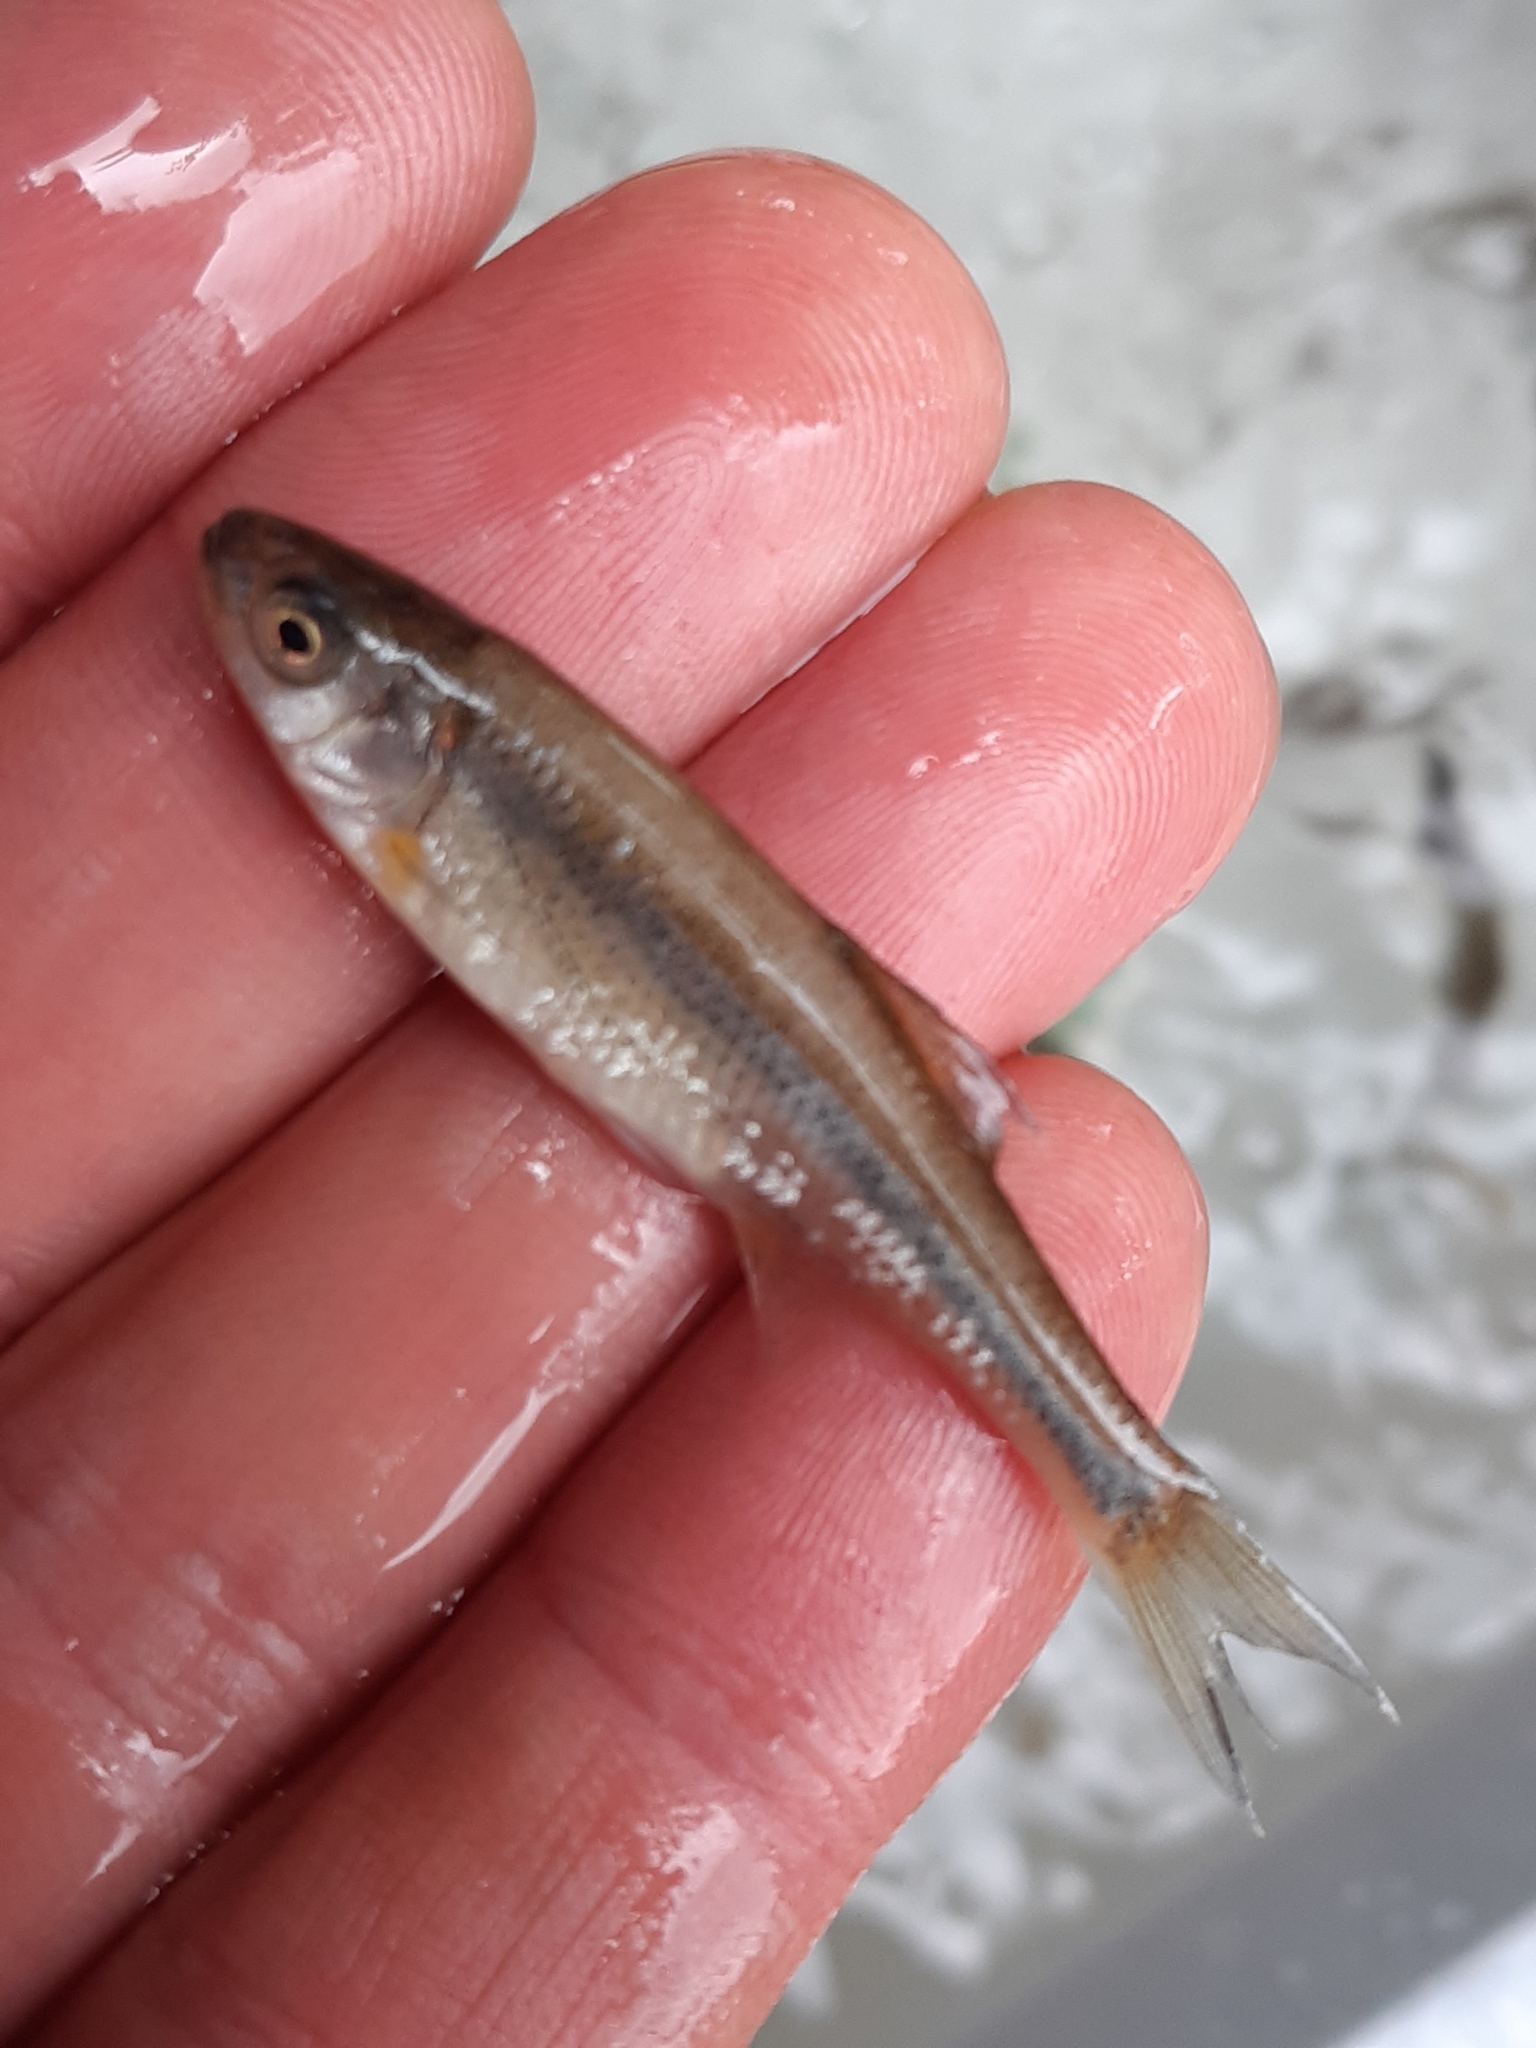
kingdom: Animalia
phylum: Chordata
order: Cypriniformes
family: Cyprinidae
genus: Telestes
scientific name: Telestes souffia
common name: Souffia
